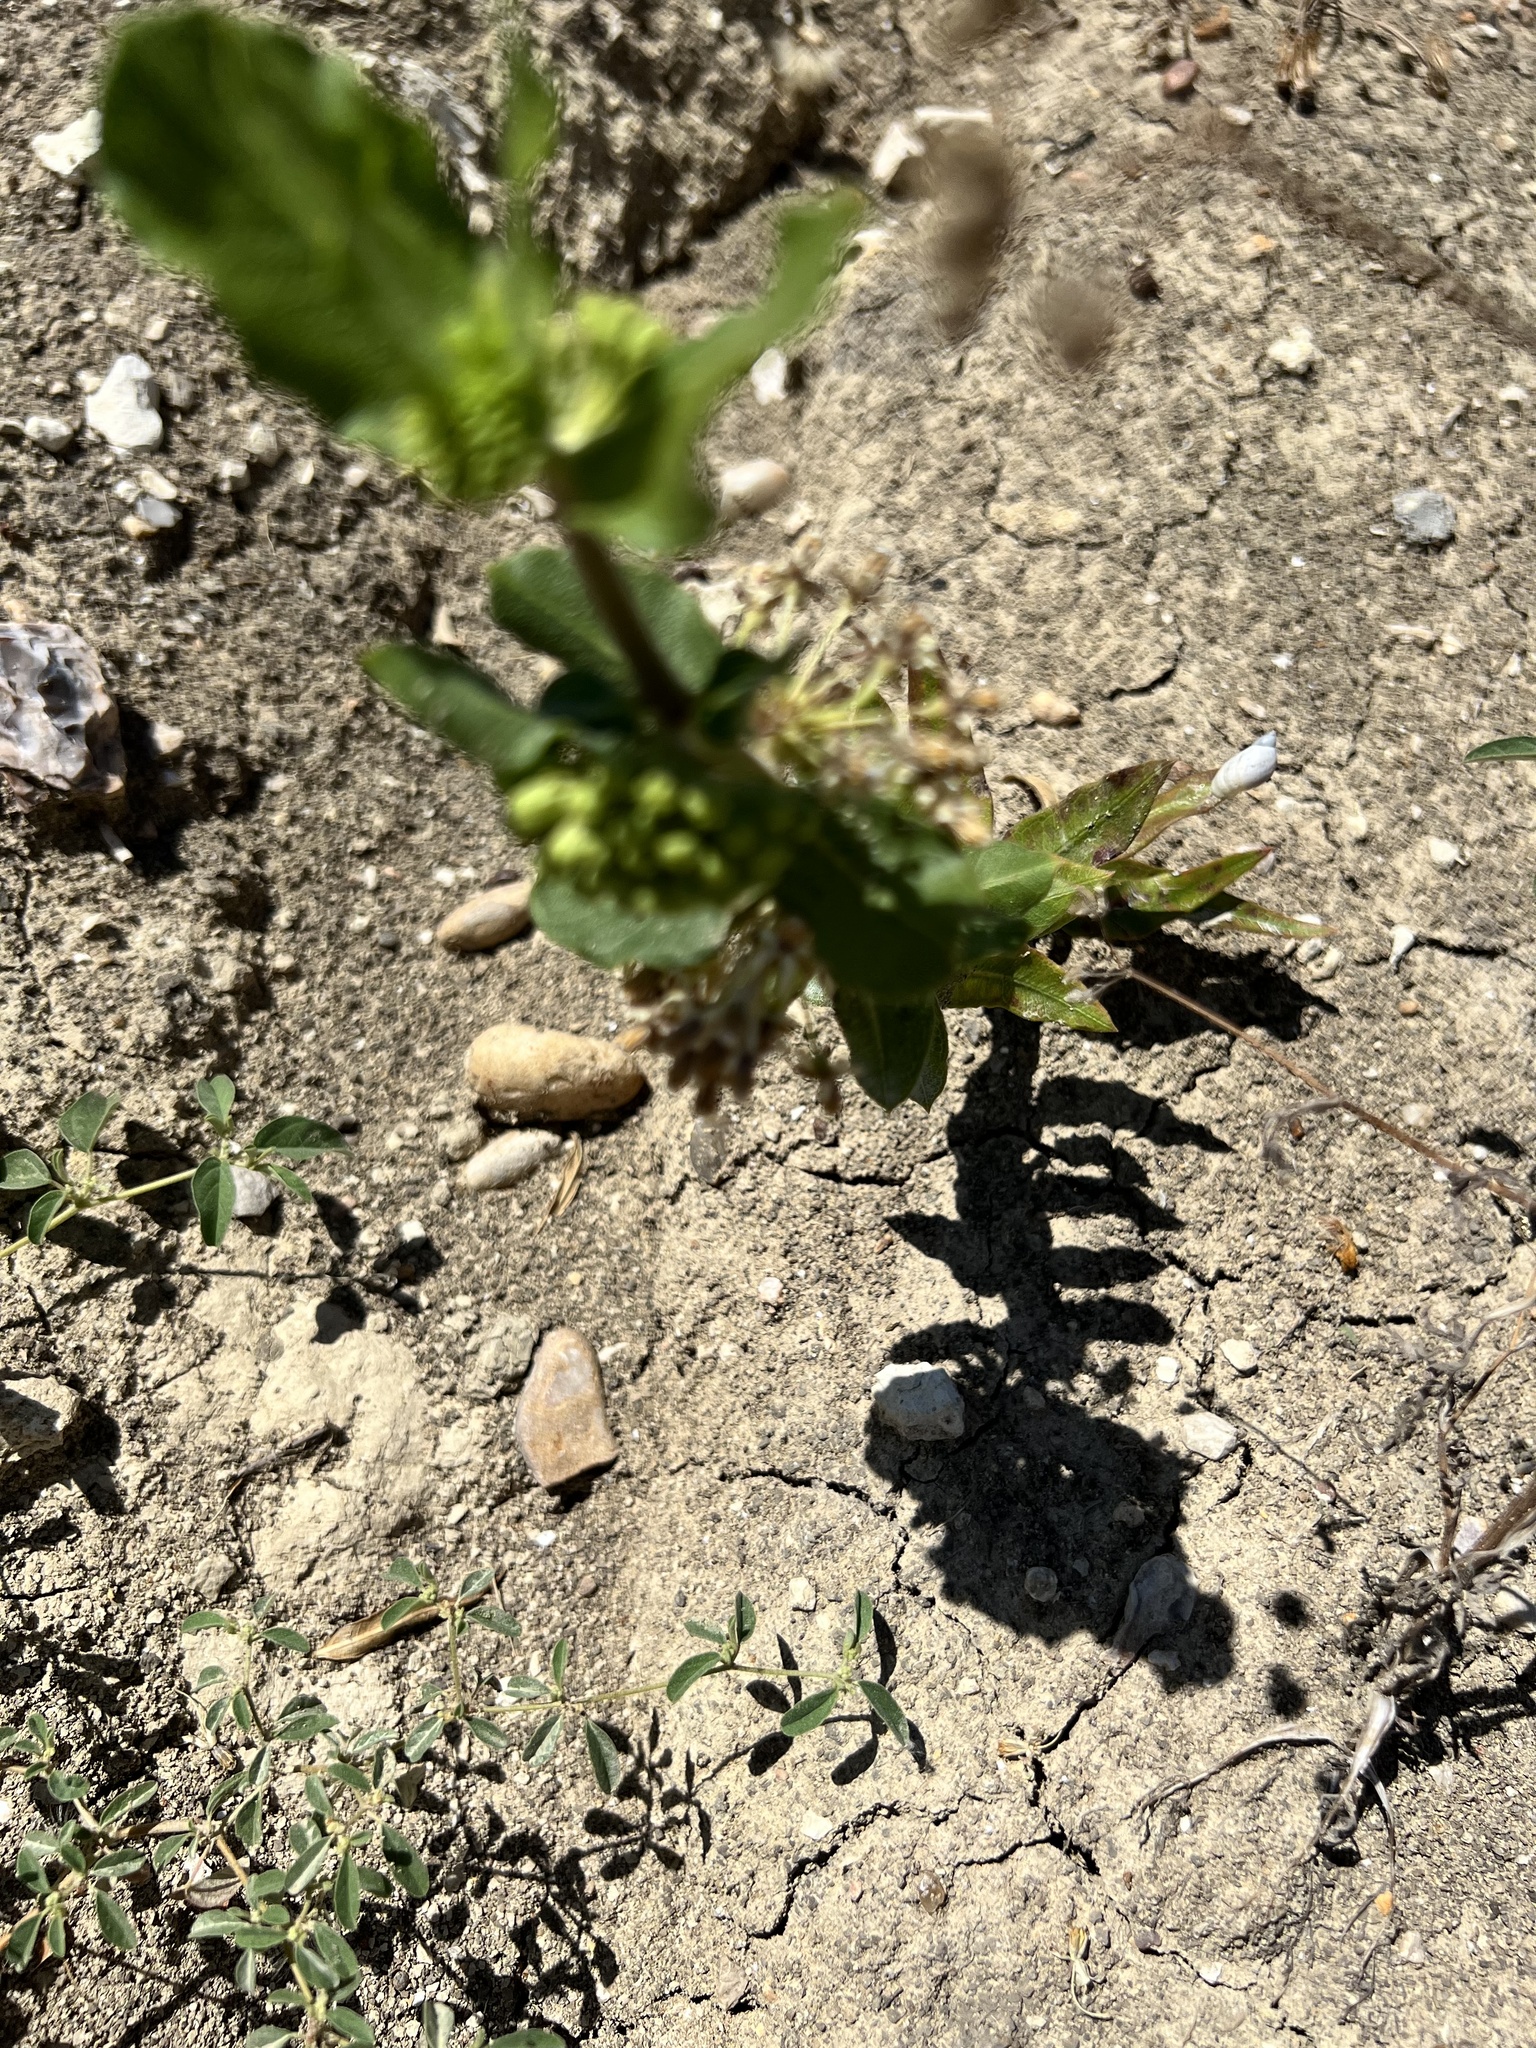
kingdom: Plantae
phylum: Tracheophyta
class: Magnoliopsida
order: Gentianales
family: Apocynaceae
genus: Asclepias
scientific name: Asclepias viridiflora
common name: Green comet milkweed
